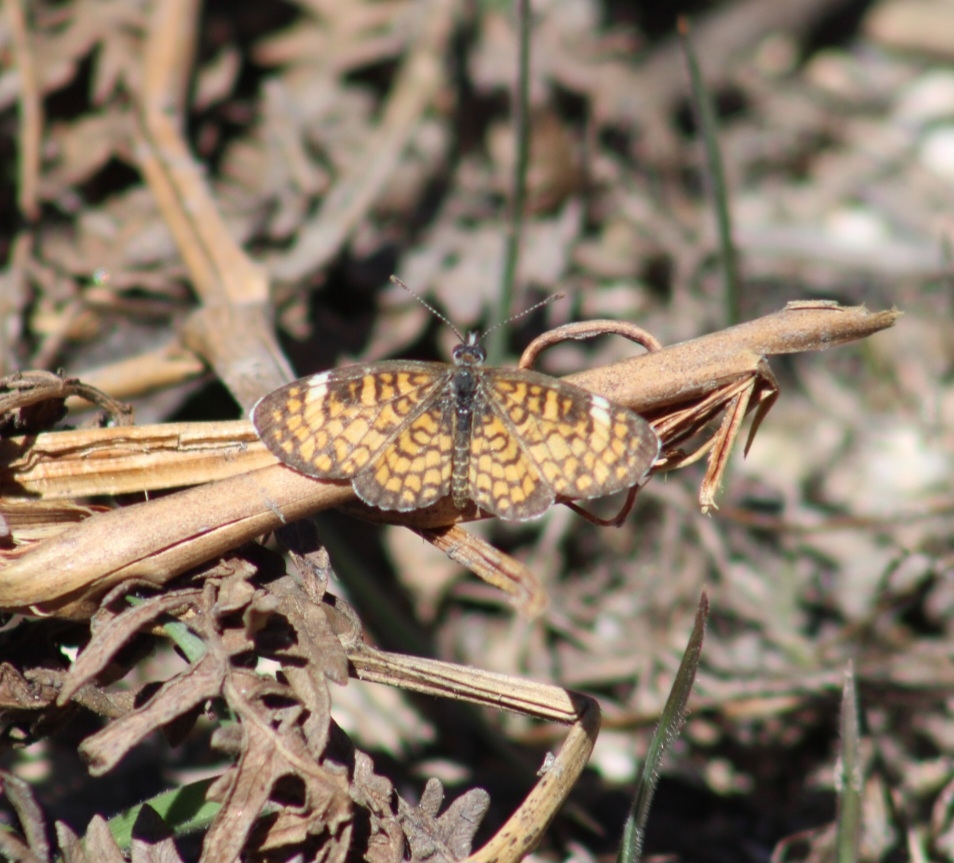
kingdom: Animalia
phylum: Arthropoda
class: Insecta
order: Lepidoptera
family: Nymphalidae
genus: Dymasia
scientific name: Dymasia dymas
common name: Tiny checkerspot
